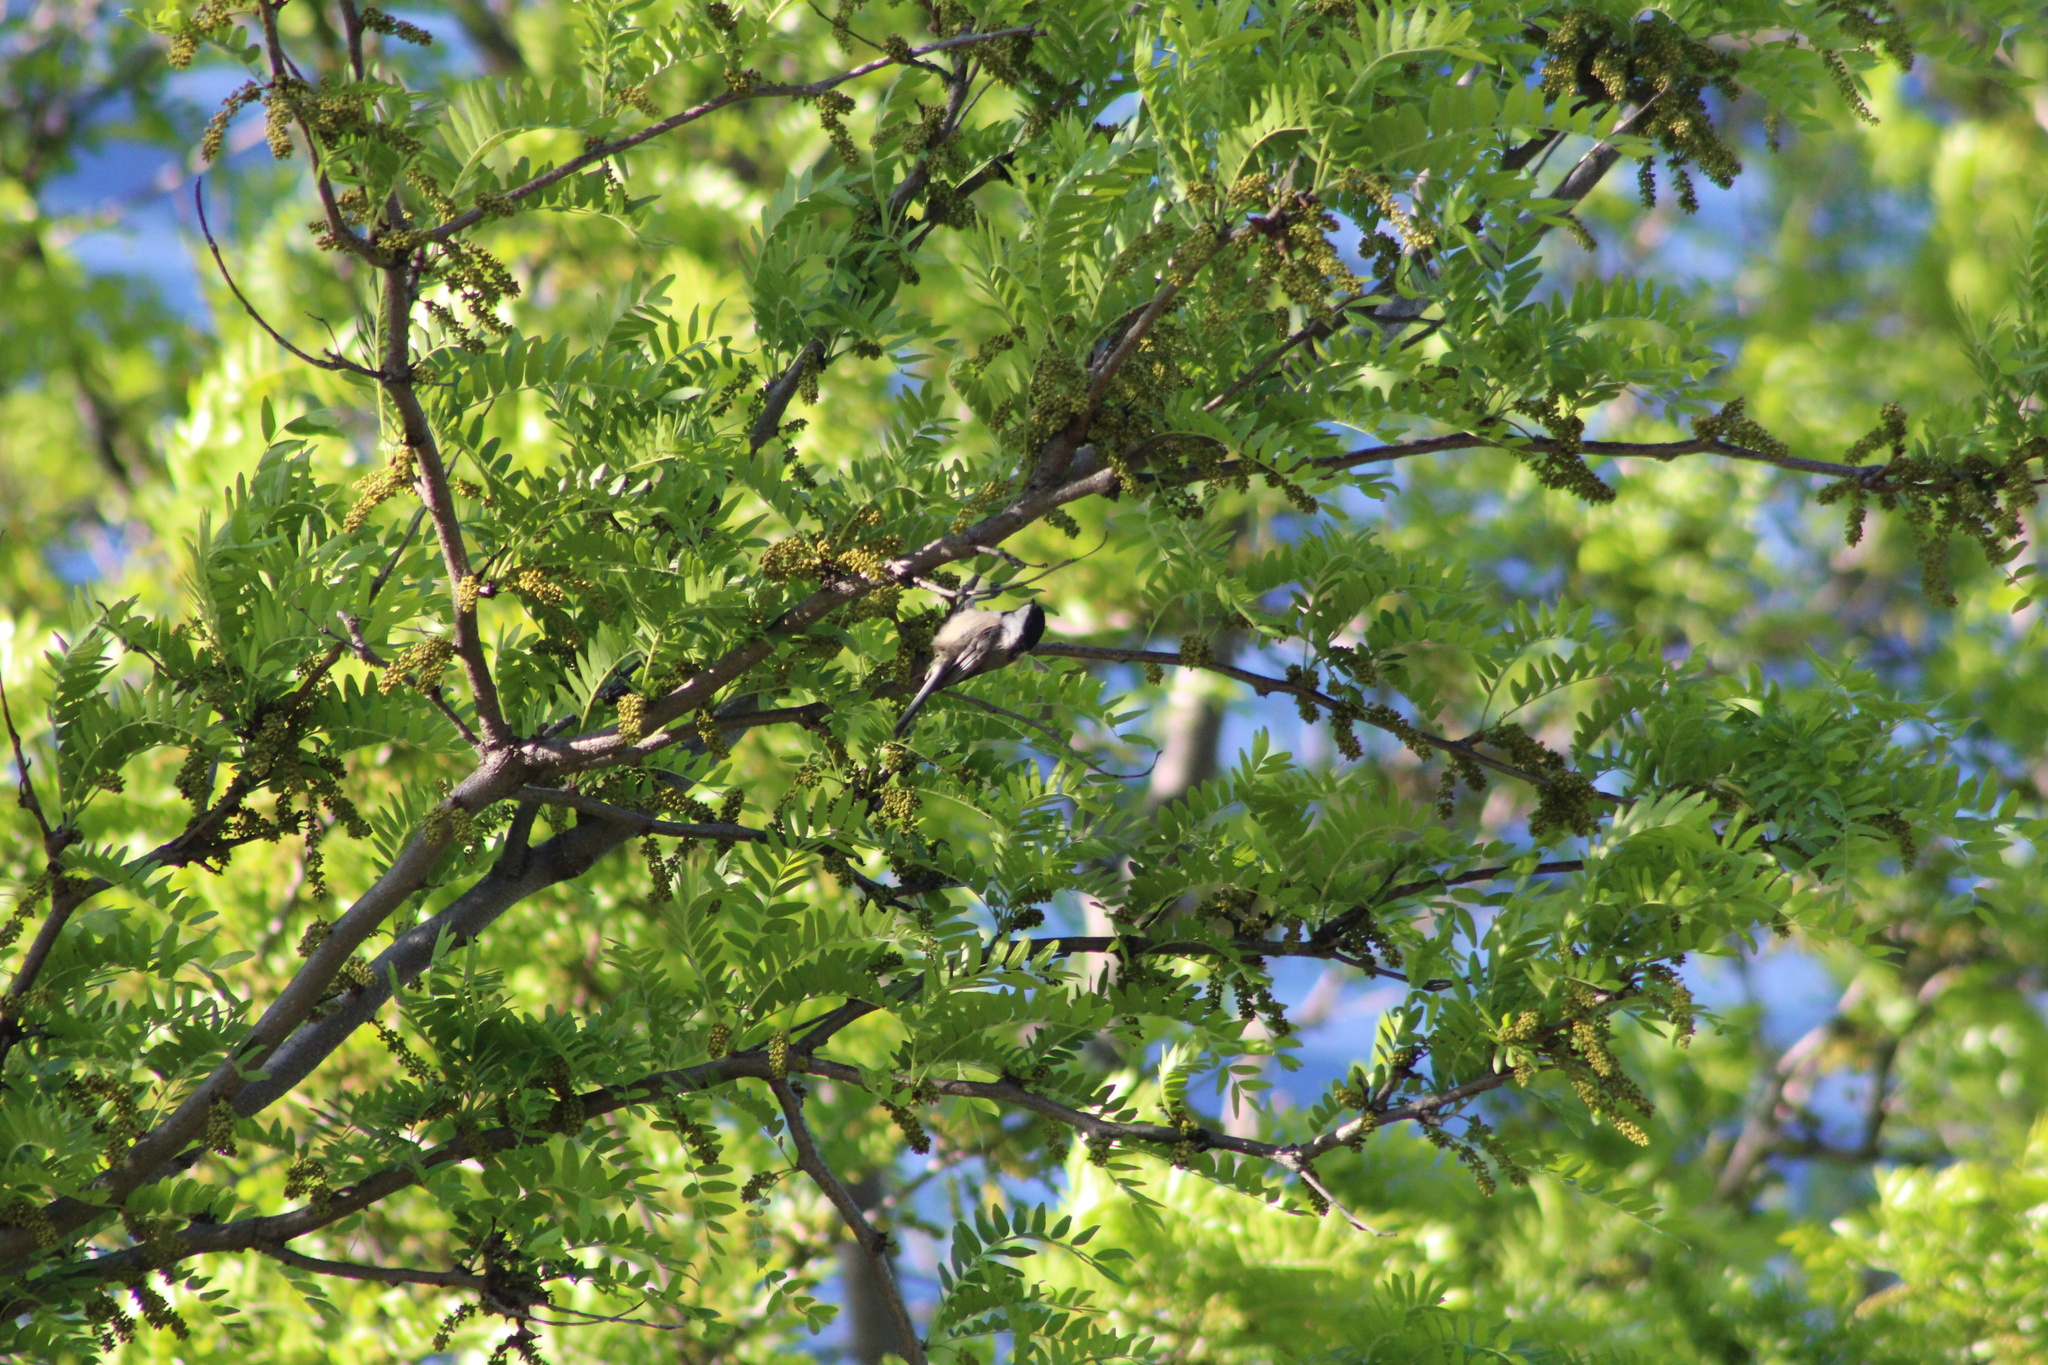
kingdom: Animalia
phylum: Chordata
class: Aves
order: Passeriformes
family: Paridae
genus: Poecile
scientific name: Poecile atricapillus
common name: Black-capped chickadee
